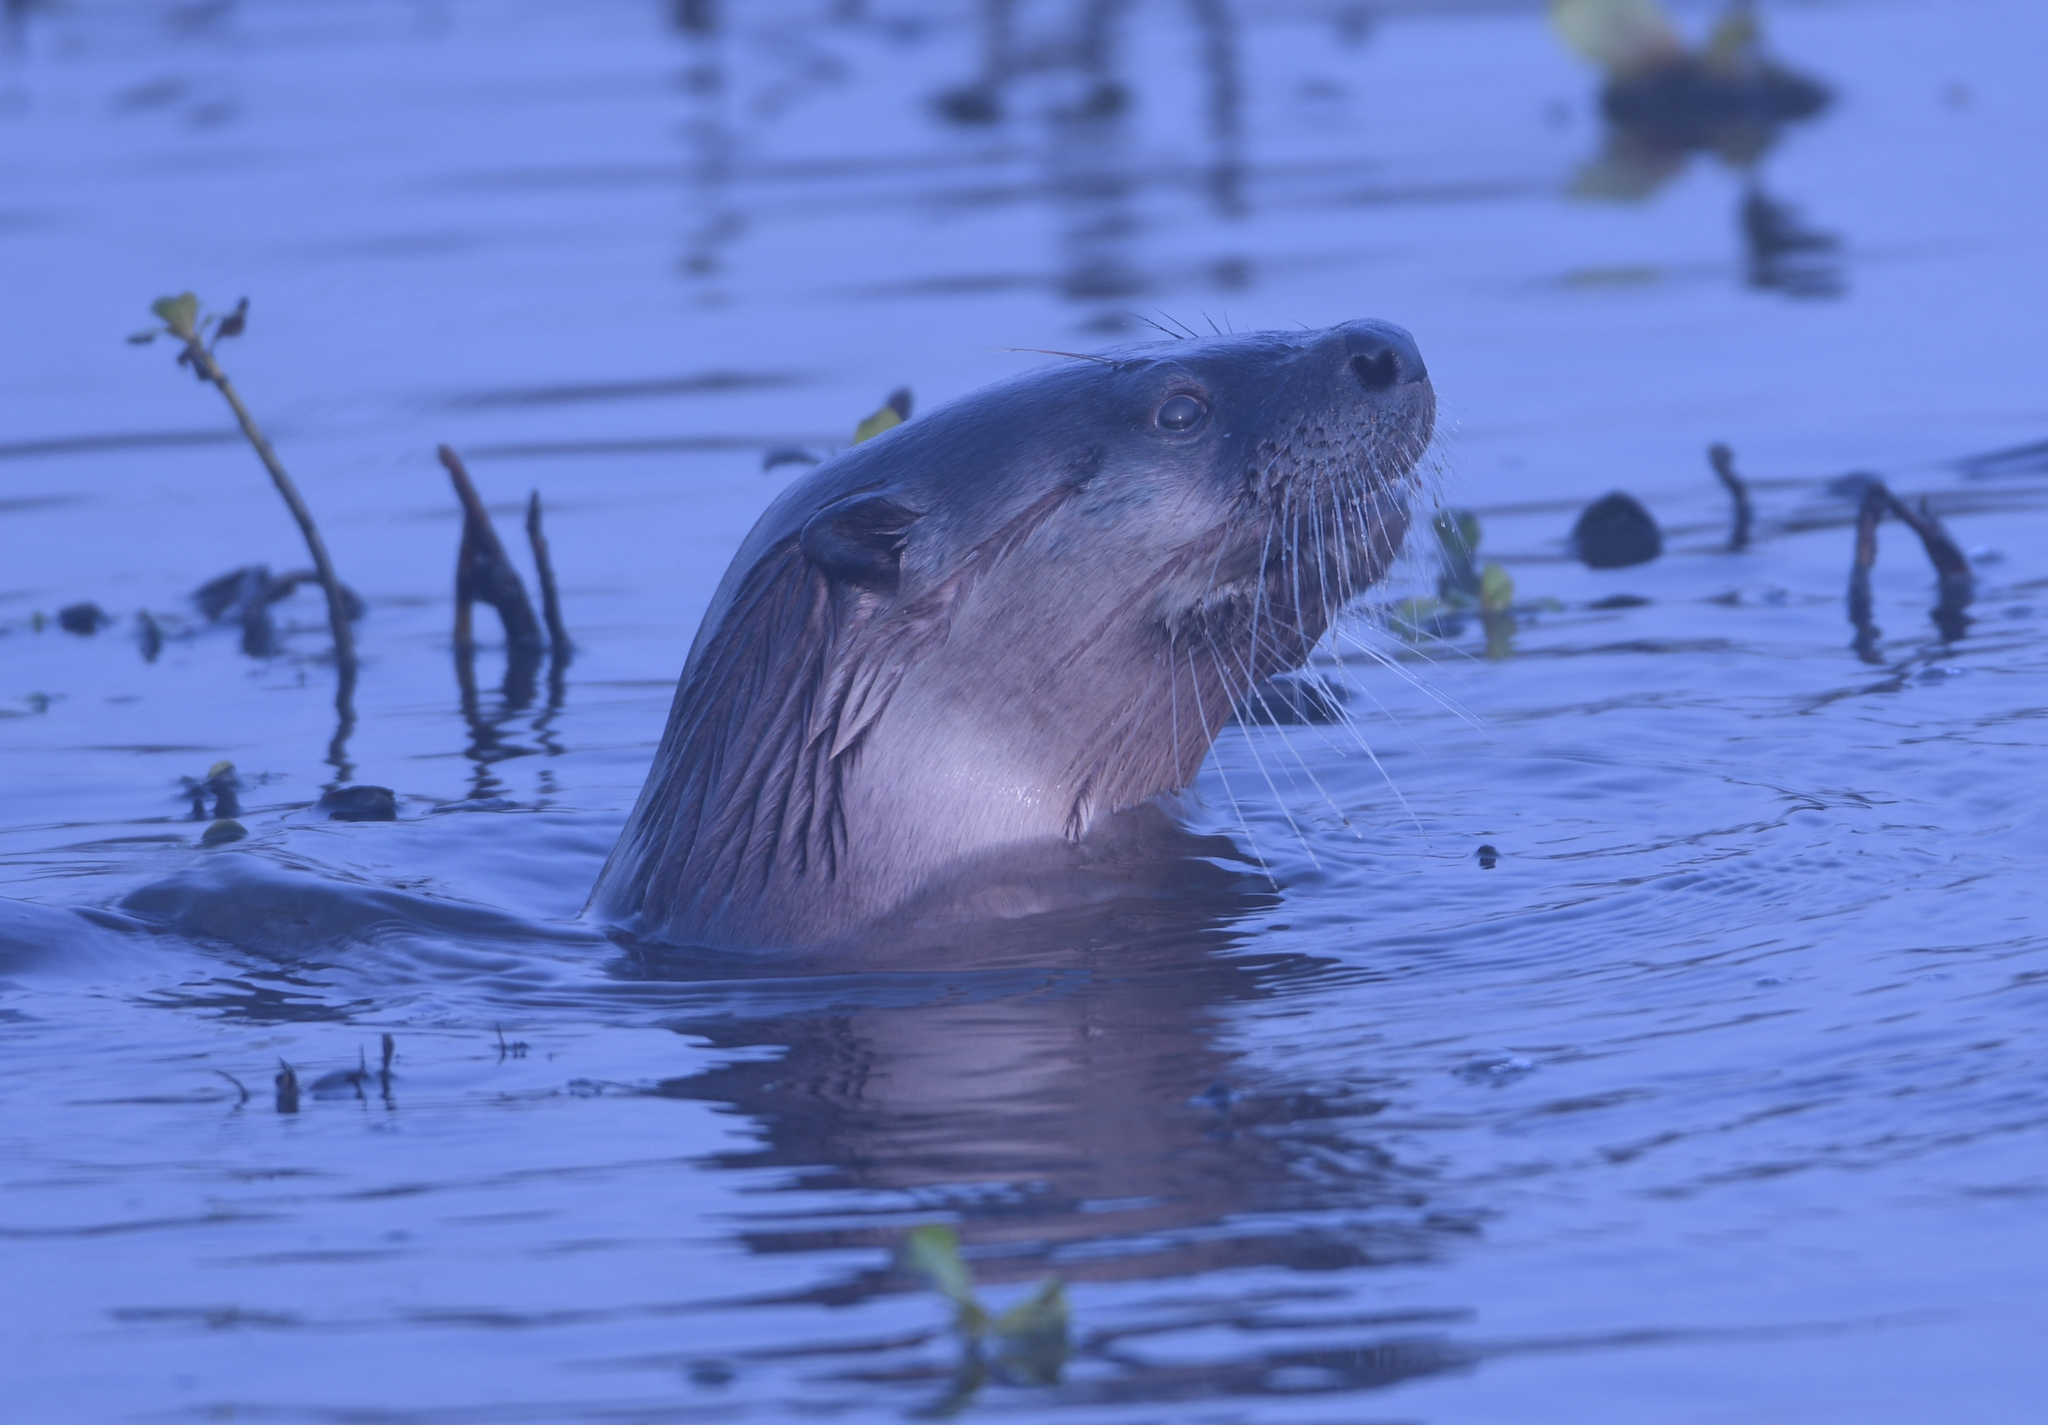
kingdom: Animalia
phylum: Chordata
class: Mammalia
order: Carnivora
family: Mustelidae
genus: Lontra
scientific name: Lontra canadensis
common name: North american river otter
